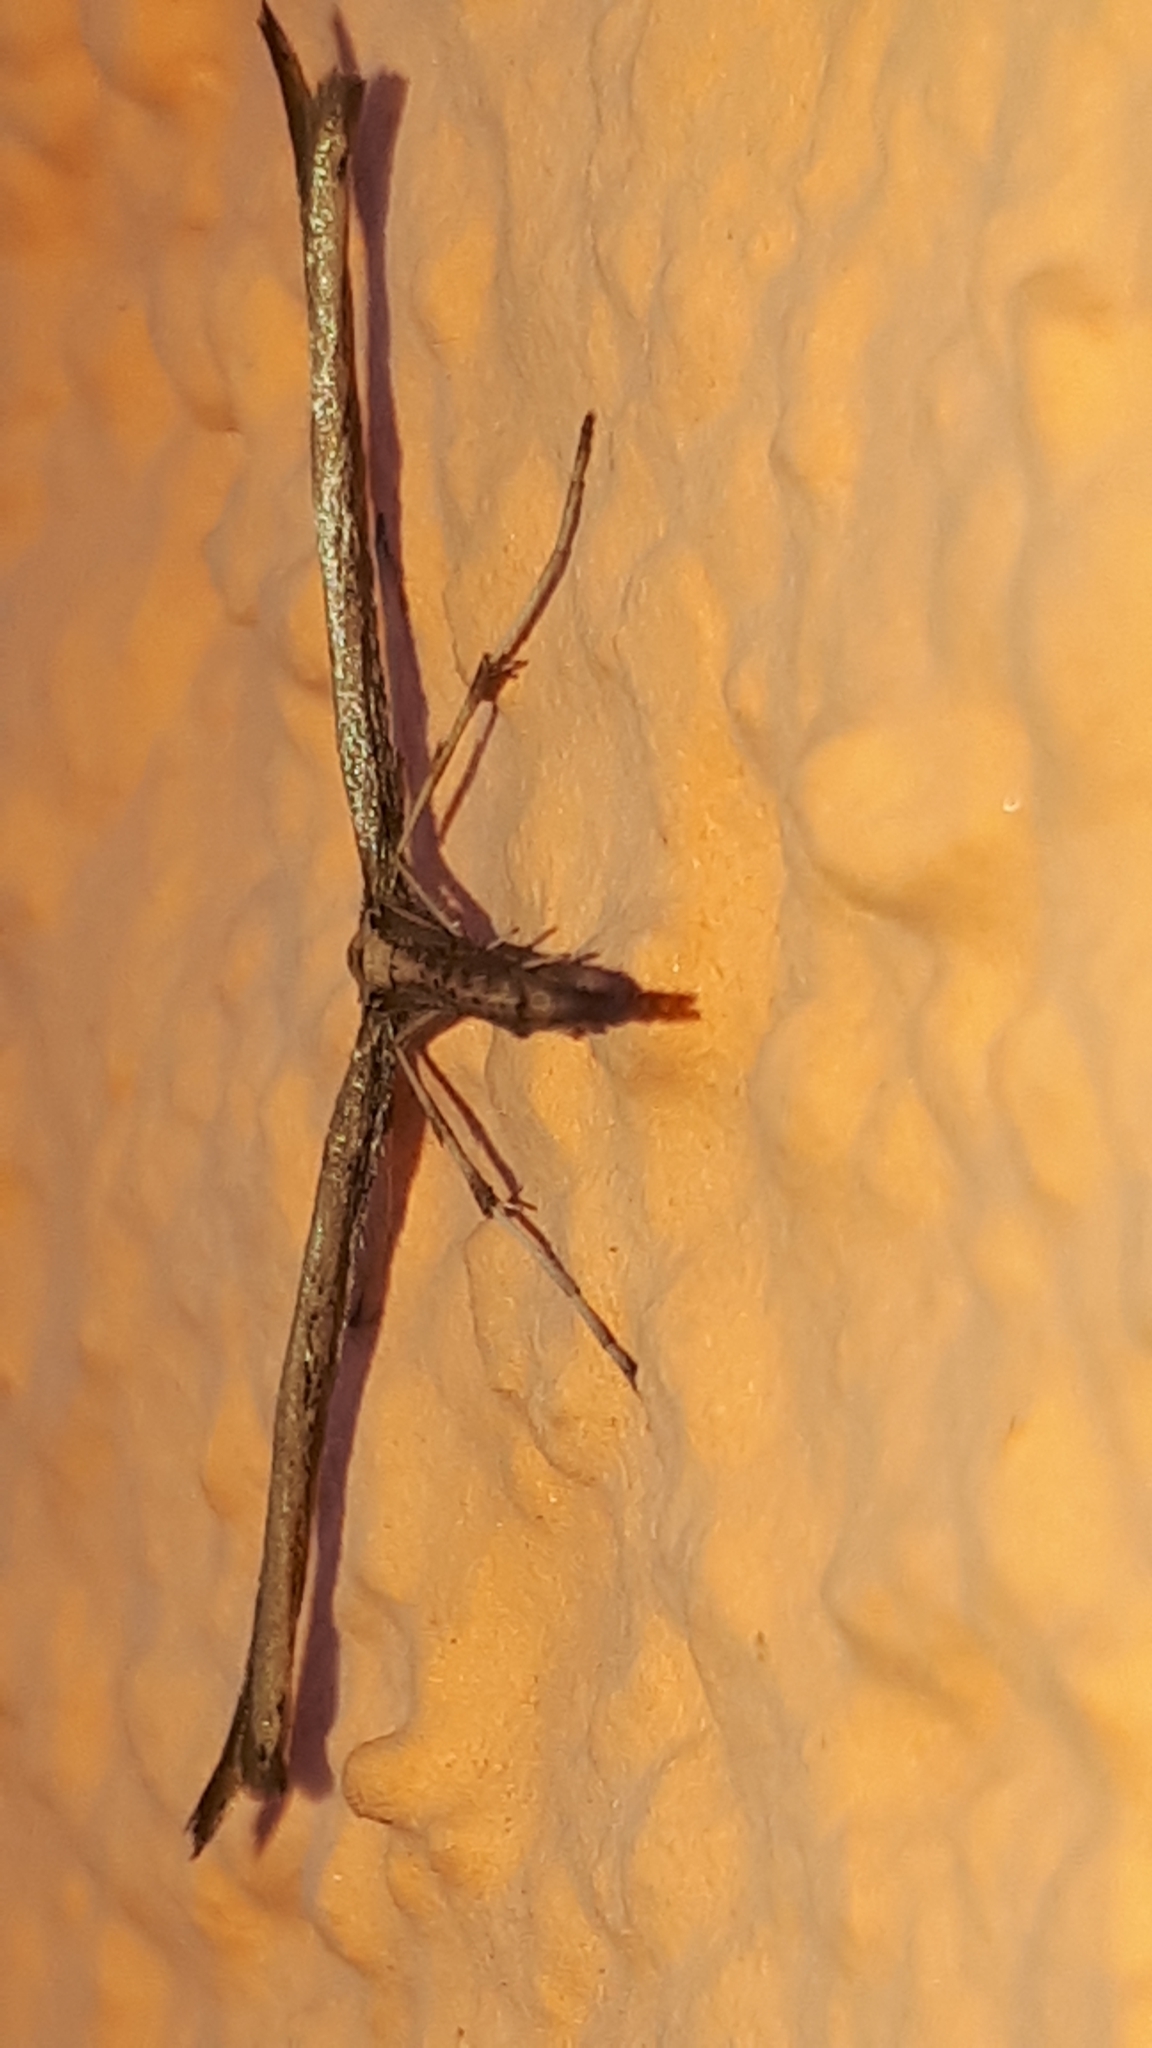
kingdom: Animalia
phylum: Arthropoda
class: Insecta
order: Lepidoptera
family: Pterophoridae
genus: Emmelina
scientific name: Emmelina monodactyla
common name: Common plume
